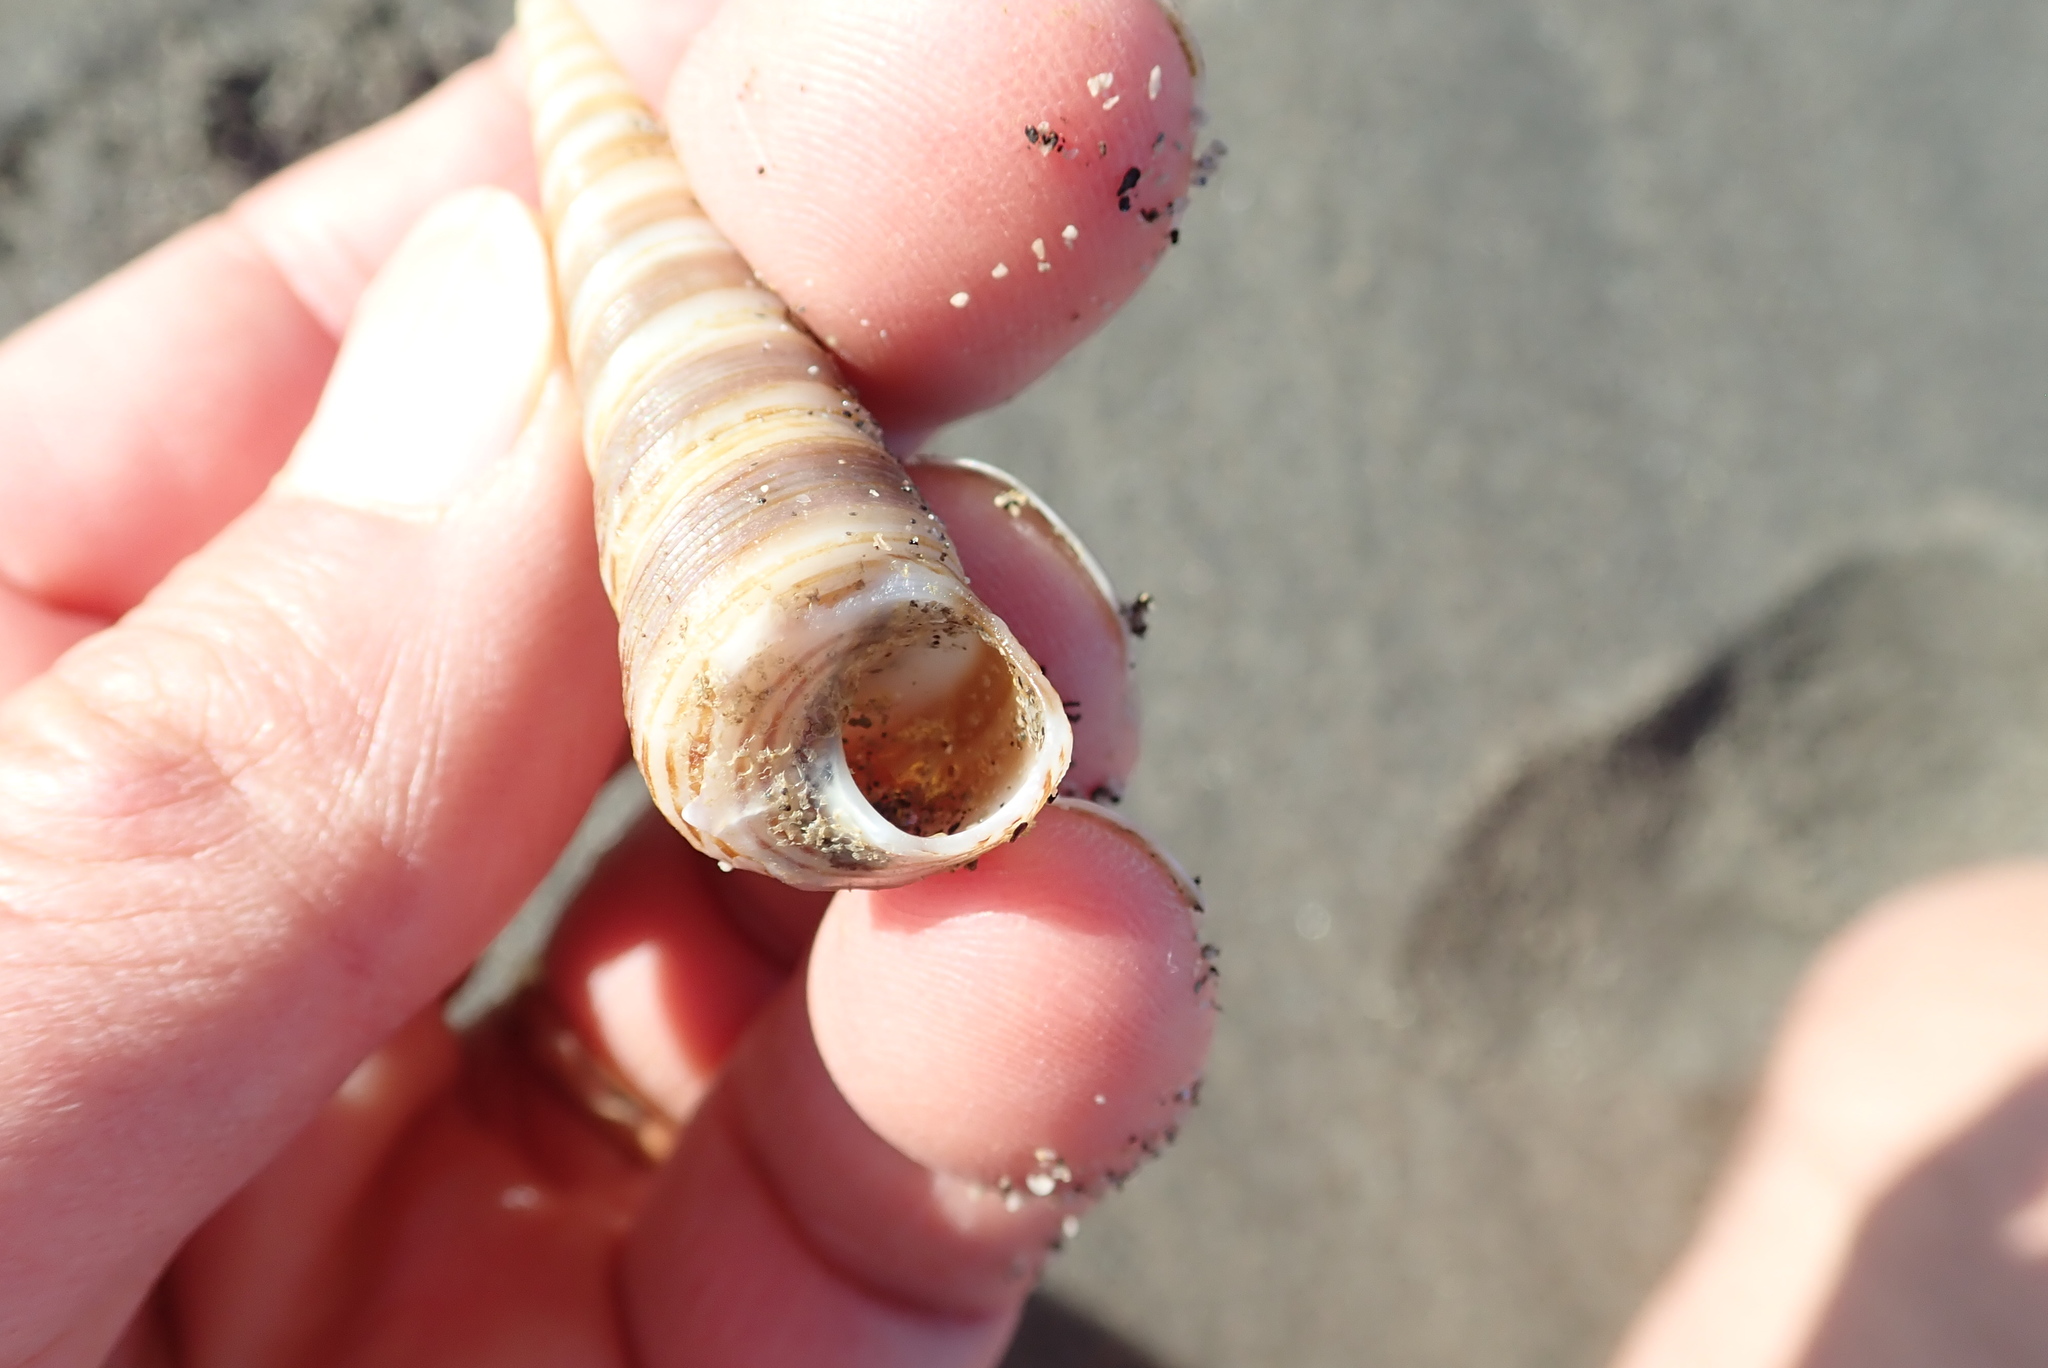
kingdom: Animalia
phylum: Mollusca
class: Gastropoda
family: Turritellidae
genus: Zeacolpus
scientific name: Zeacolpus vittatus
